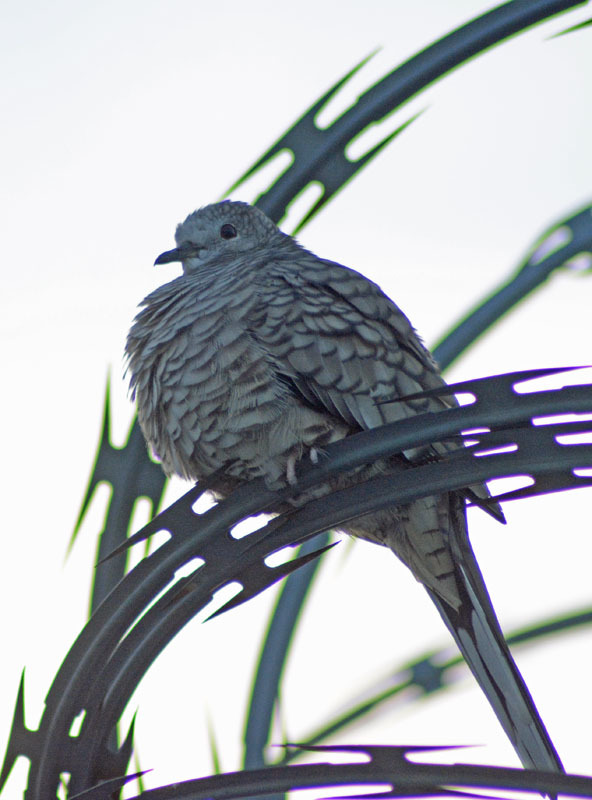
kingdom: Animalia
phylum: Chordata
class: Aves
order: Columbiformes
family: Columbidae
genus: Columbina
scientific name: Columbina inca
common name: Inca dove
